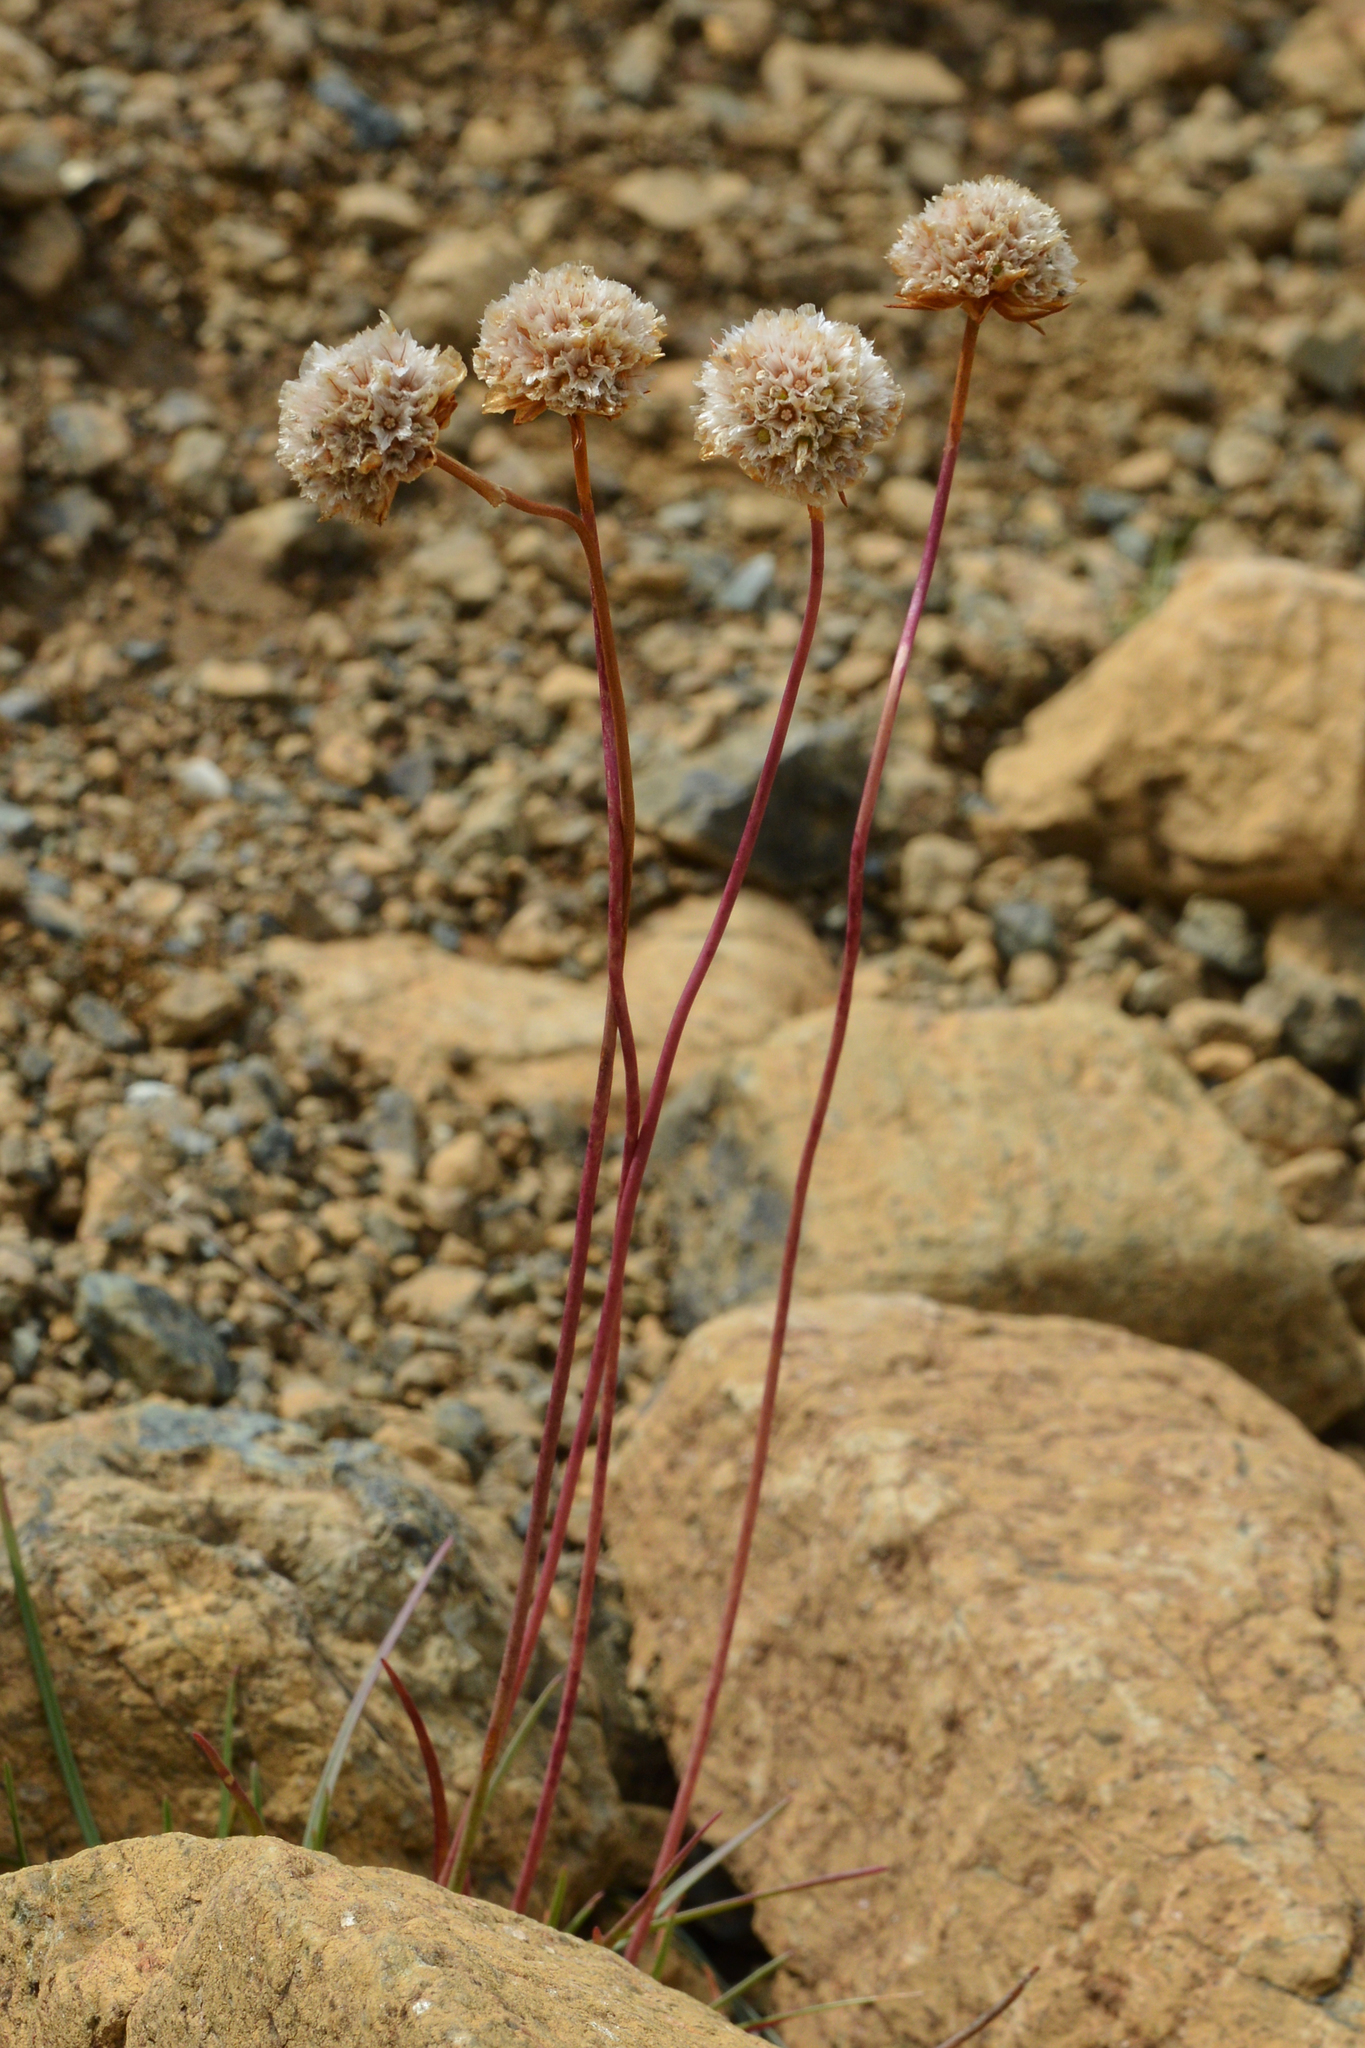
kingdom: Plantae
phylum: Tracheophyta
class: Magnoliopsida
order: Caryophyllales
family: Plumbaginaceae
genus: Armeria
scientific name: Armeria maritima
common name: Thrift
